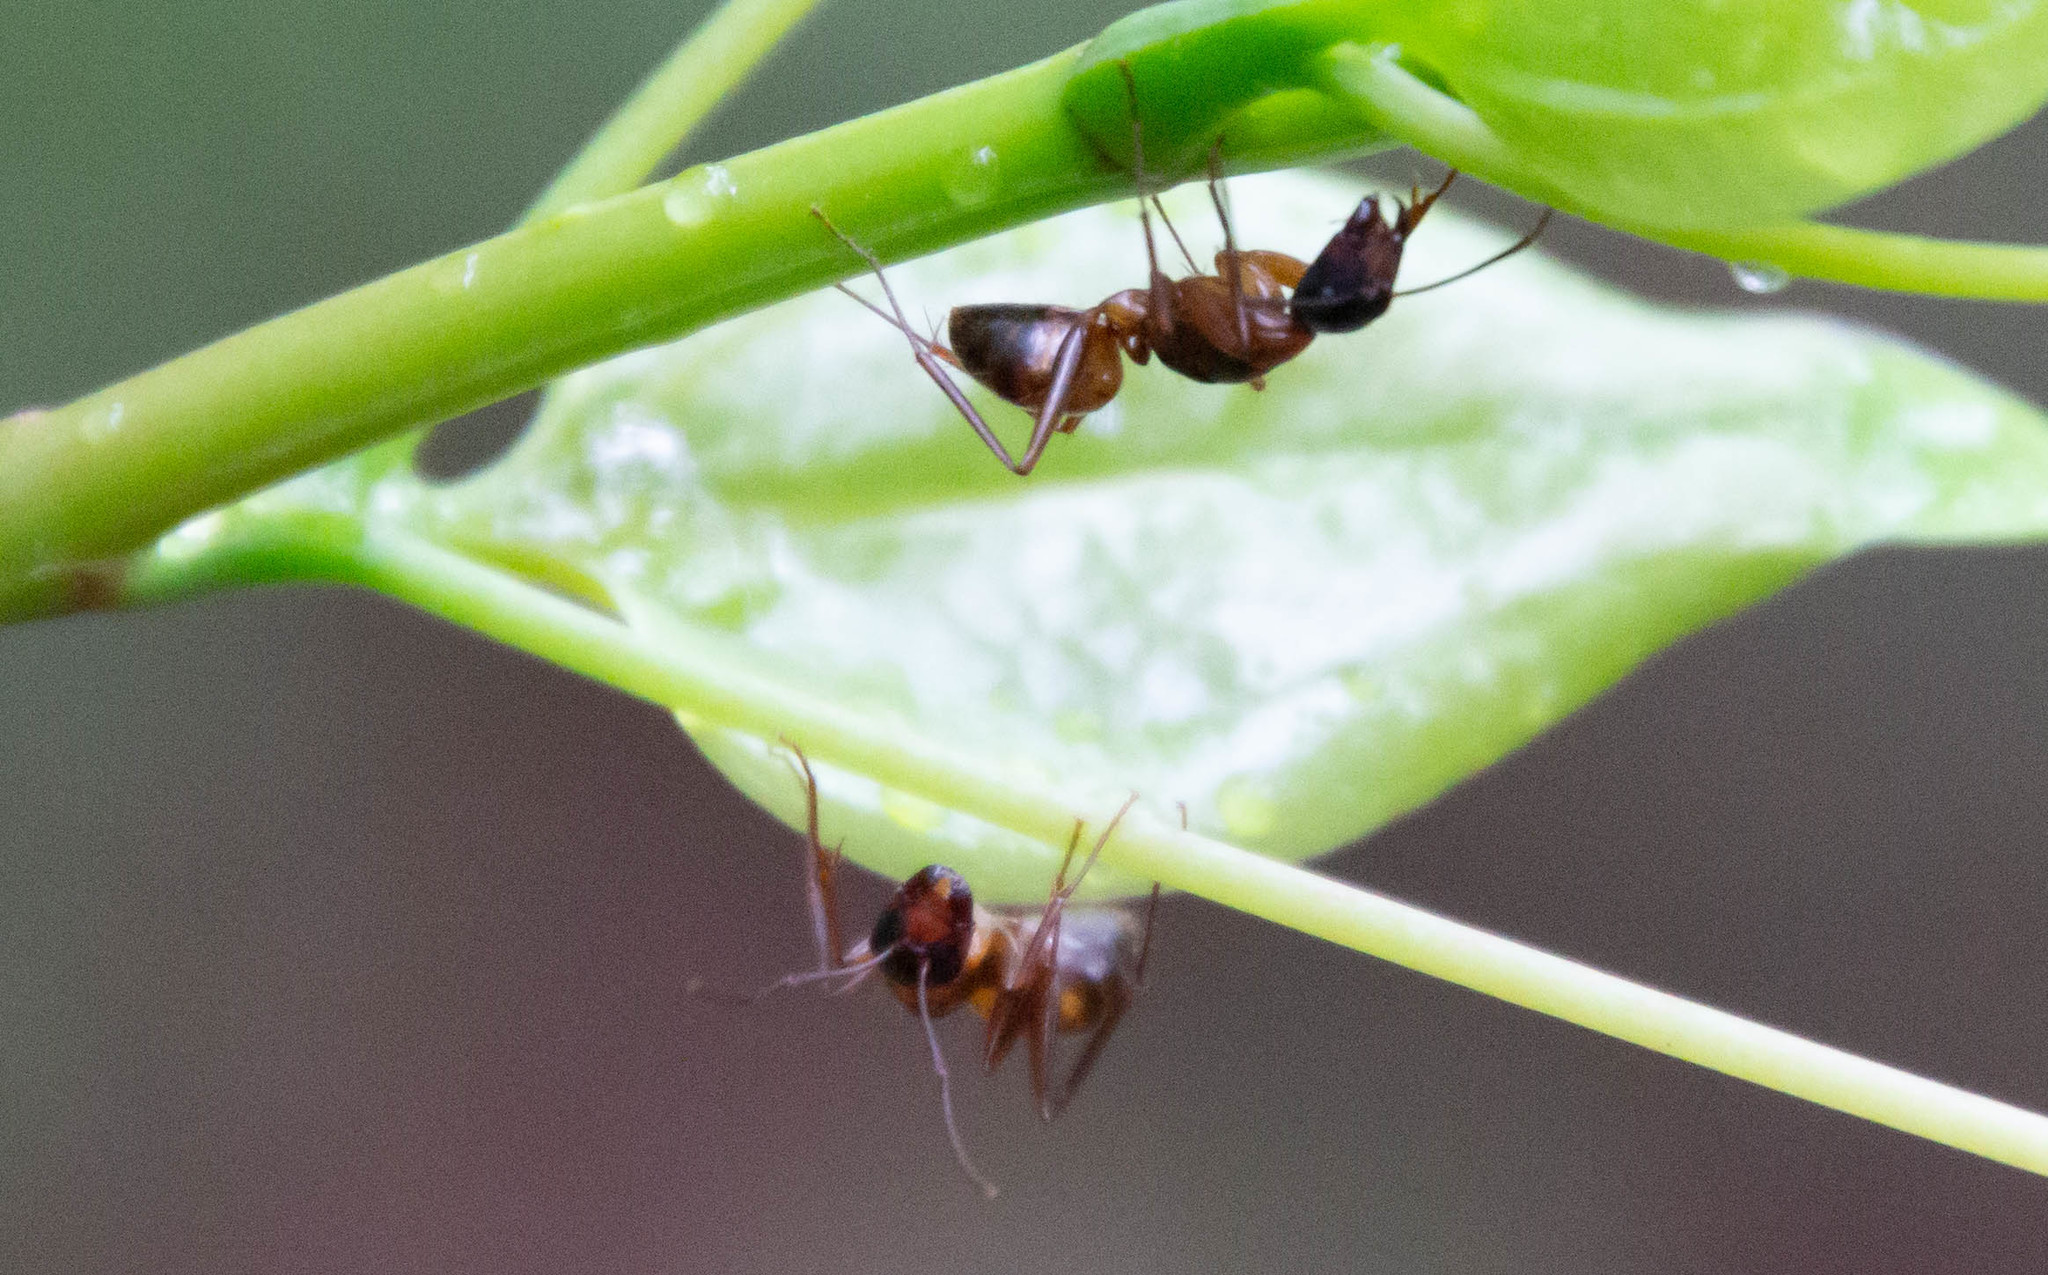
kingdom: Animalia
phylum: Arthropoda
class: Insecta
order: Hymenoptera
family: Formicidae
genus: Camponotus
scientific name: Camponotus americanus
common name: American carpenter ant
